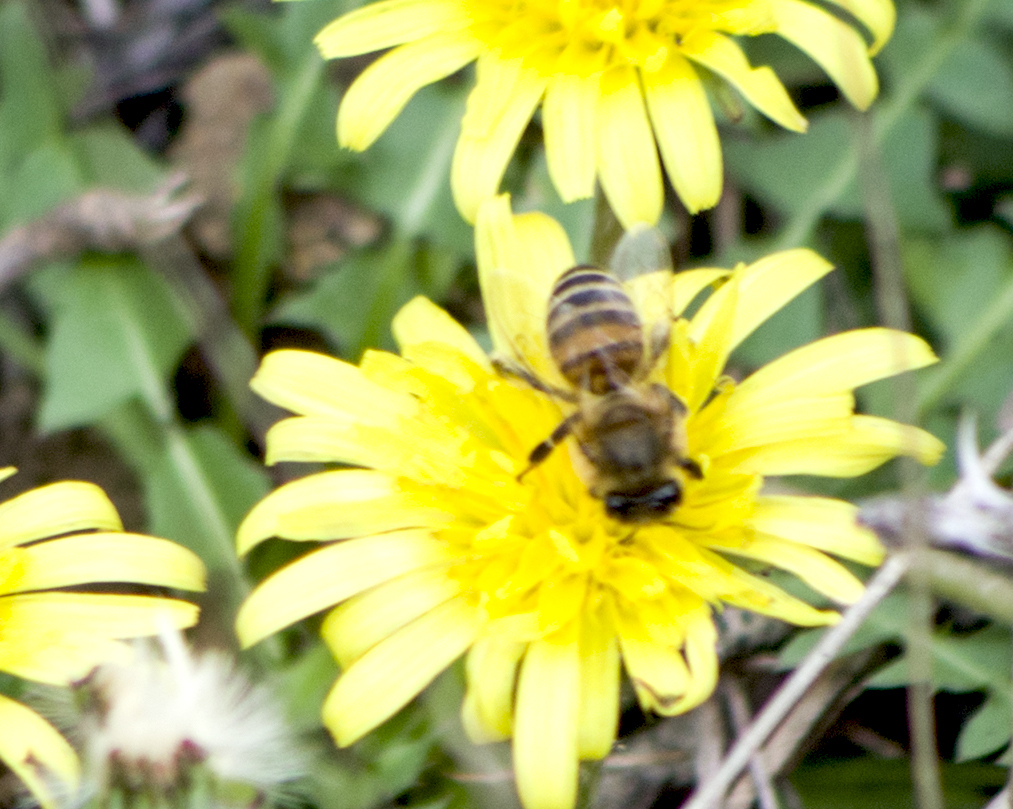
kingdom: Animalia
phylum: Arthropoda
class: Insecta
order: Hymenoptera
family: Apidae
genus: Apis
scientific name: Apis mellifera
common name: Honey bee
